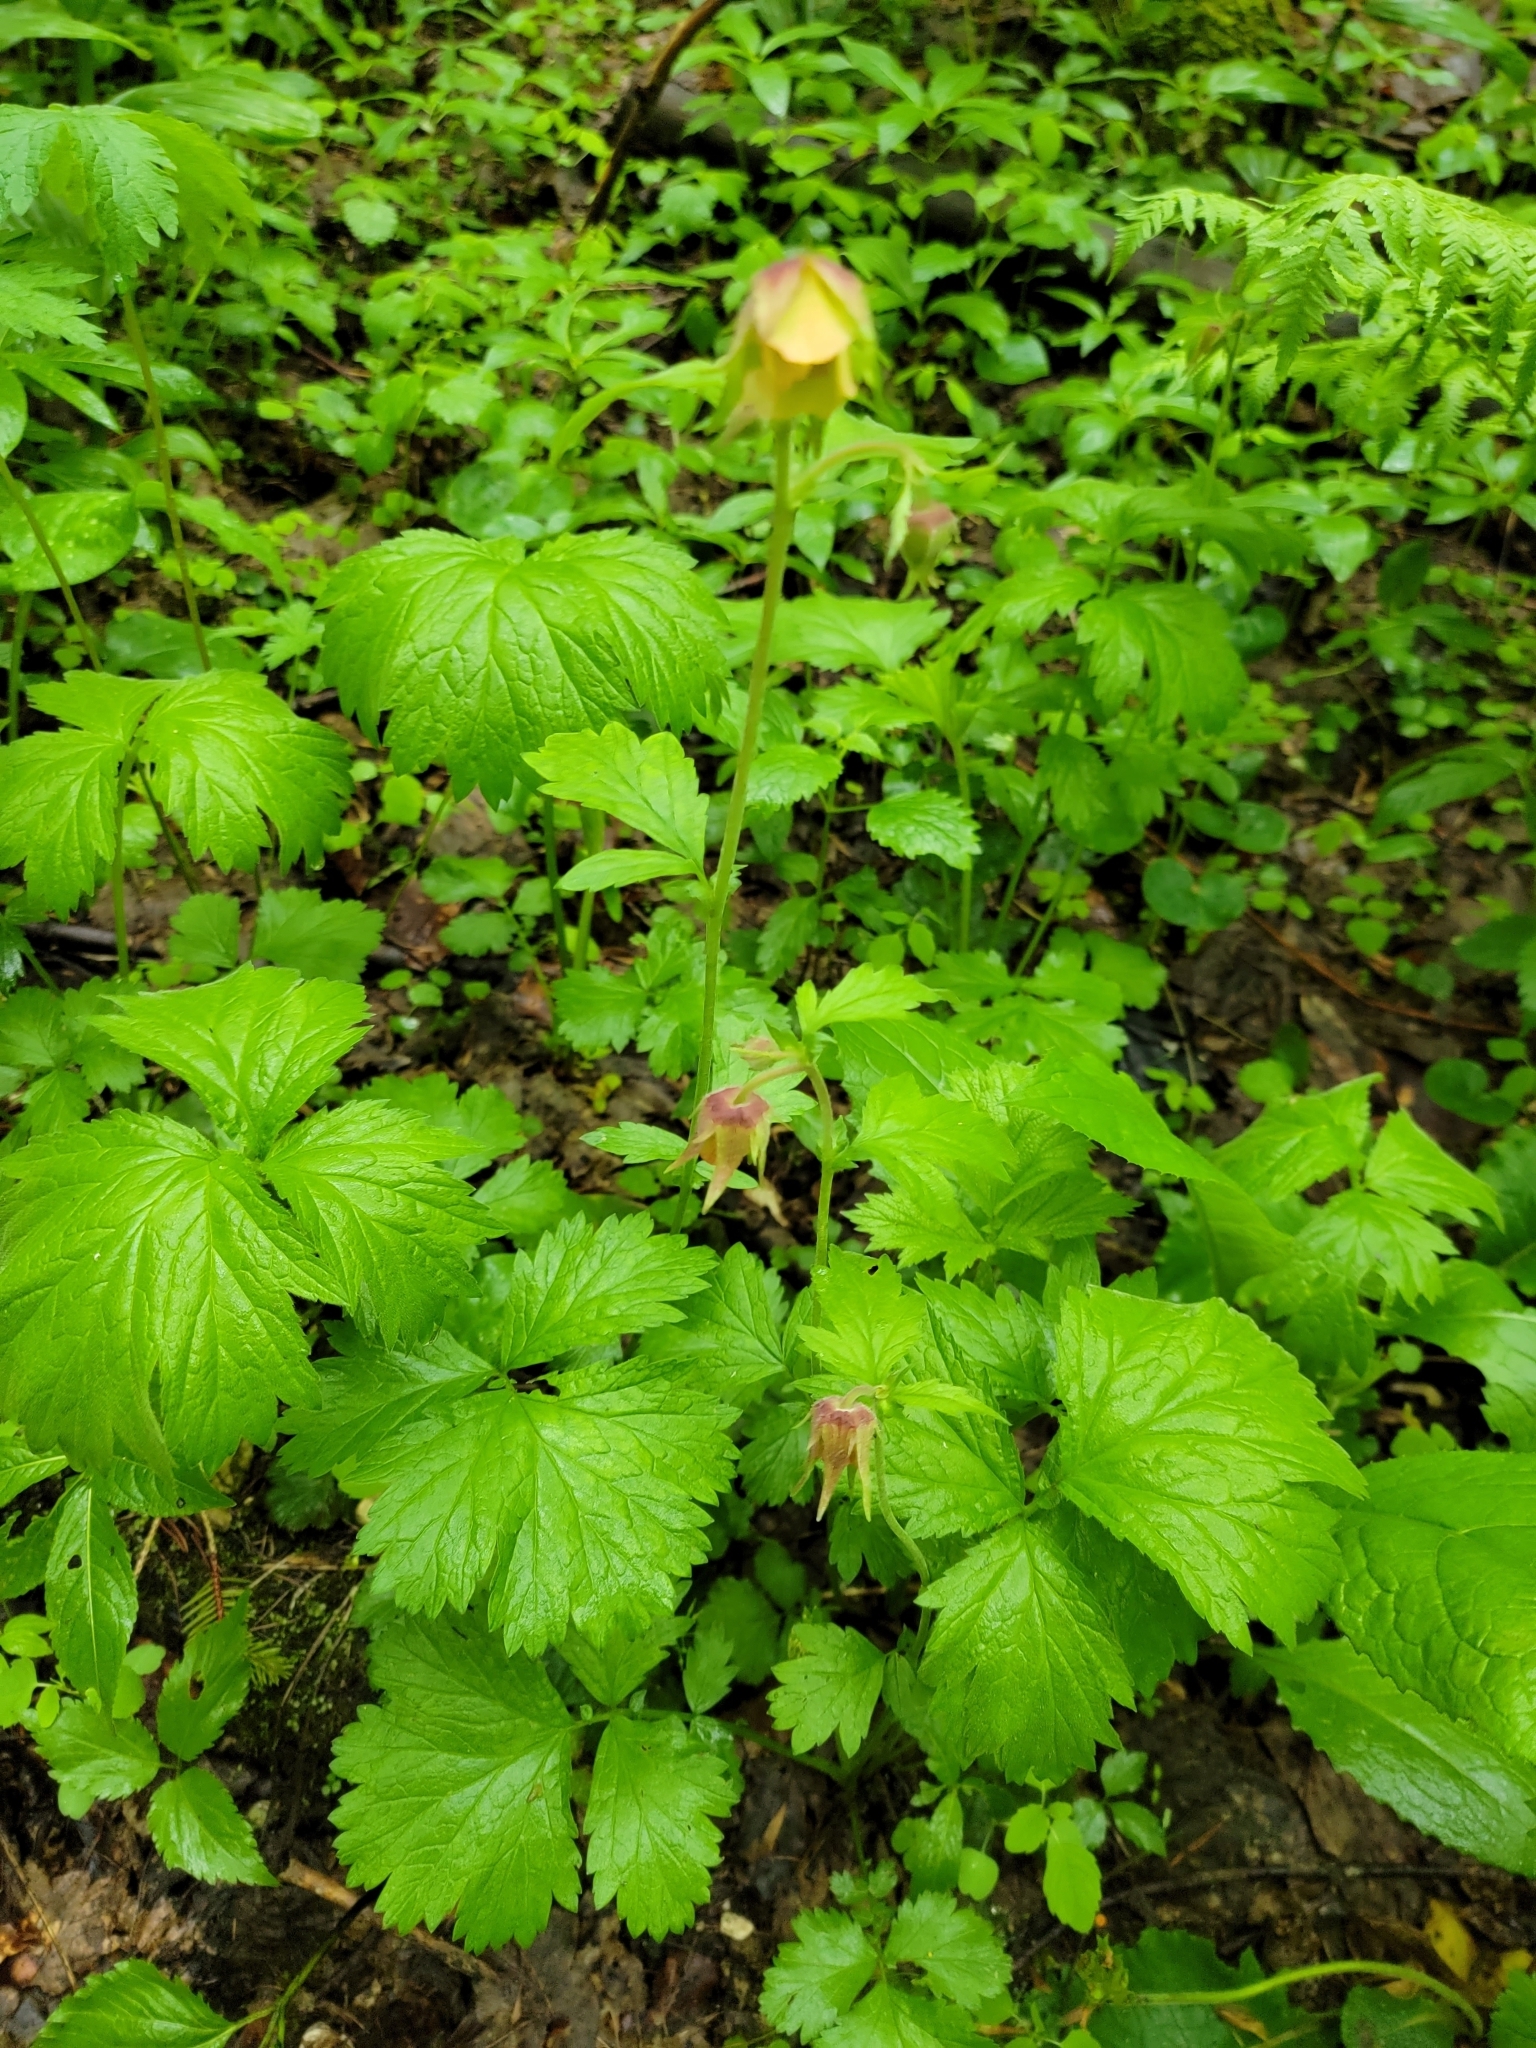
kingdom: Plantae
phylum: Tracheophyta
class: Magnoliopsida
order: Rosales
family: Rosaceae
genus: Geum
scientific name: Geum rivale
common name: Water avens
